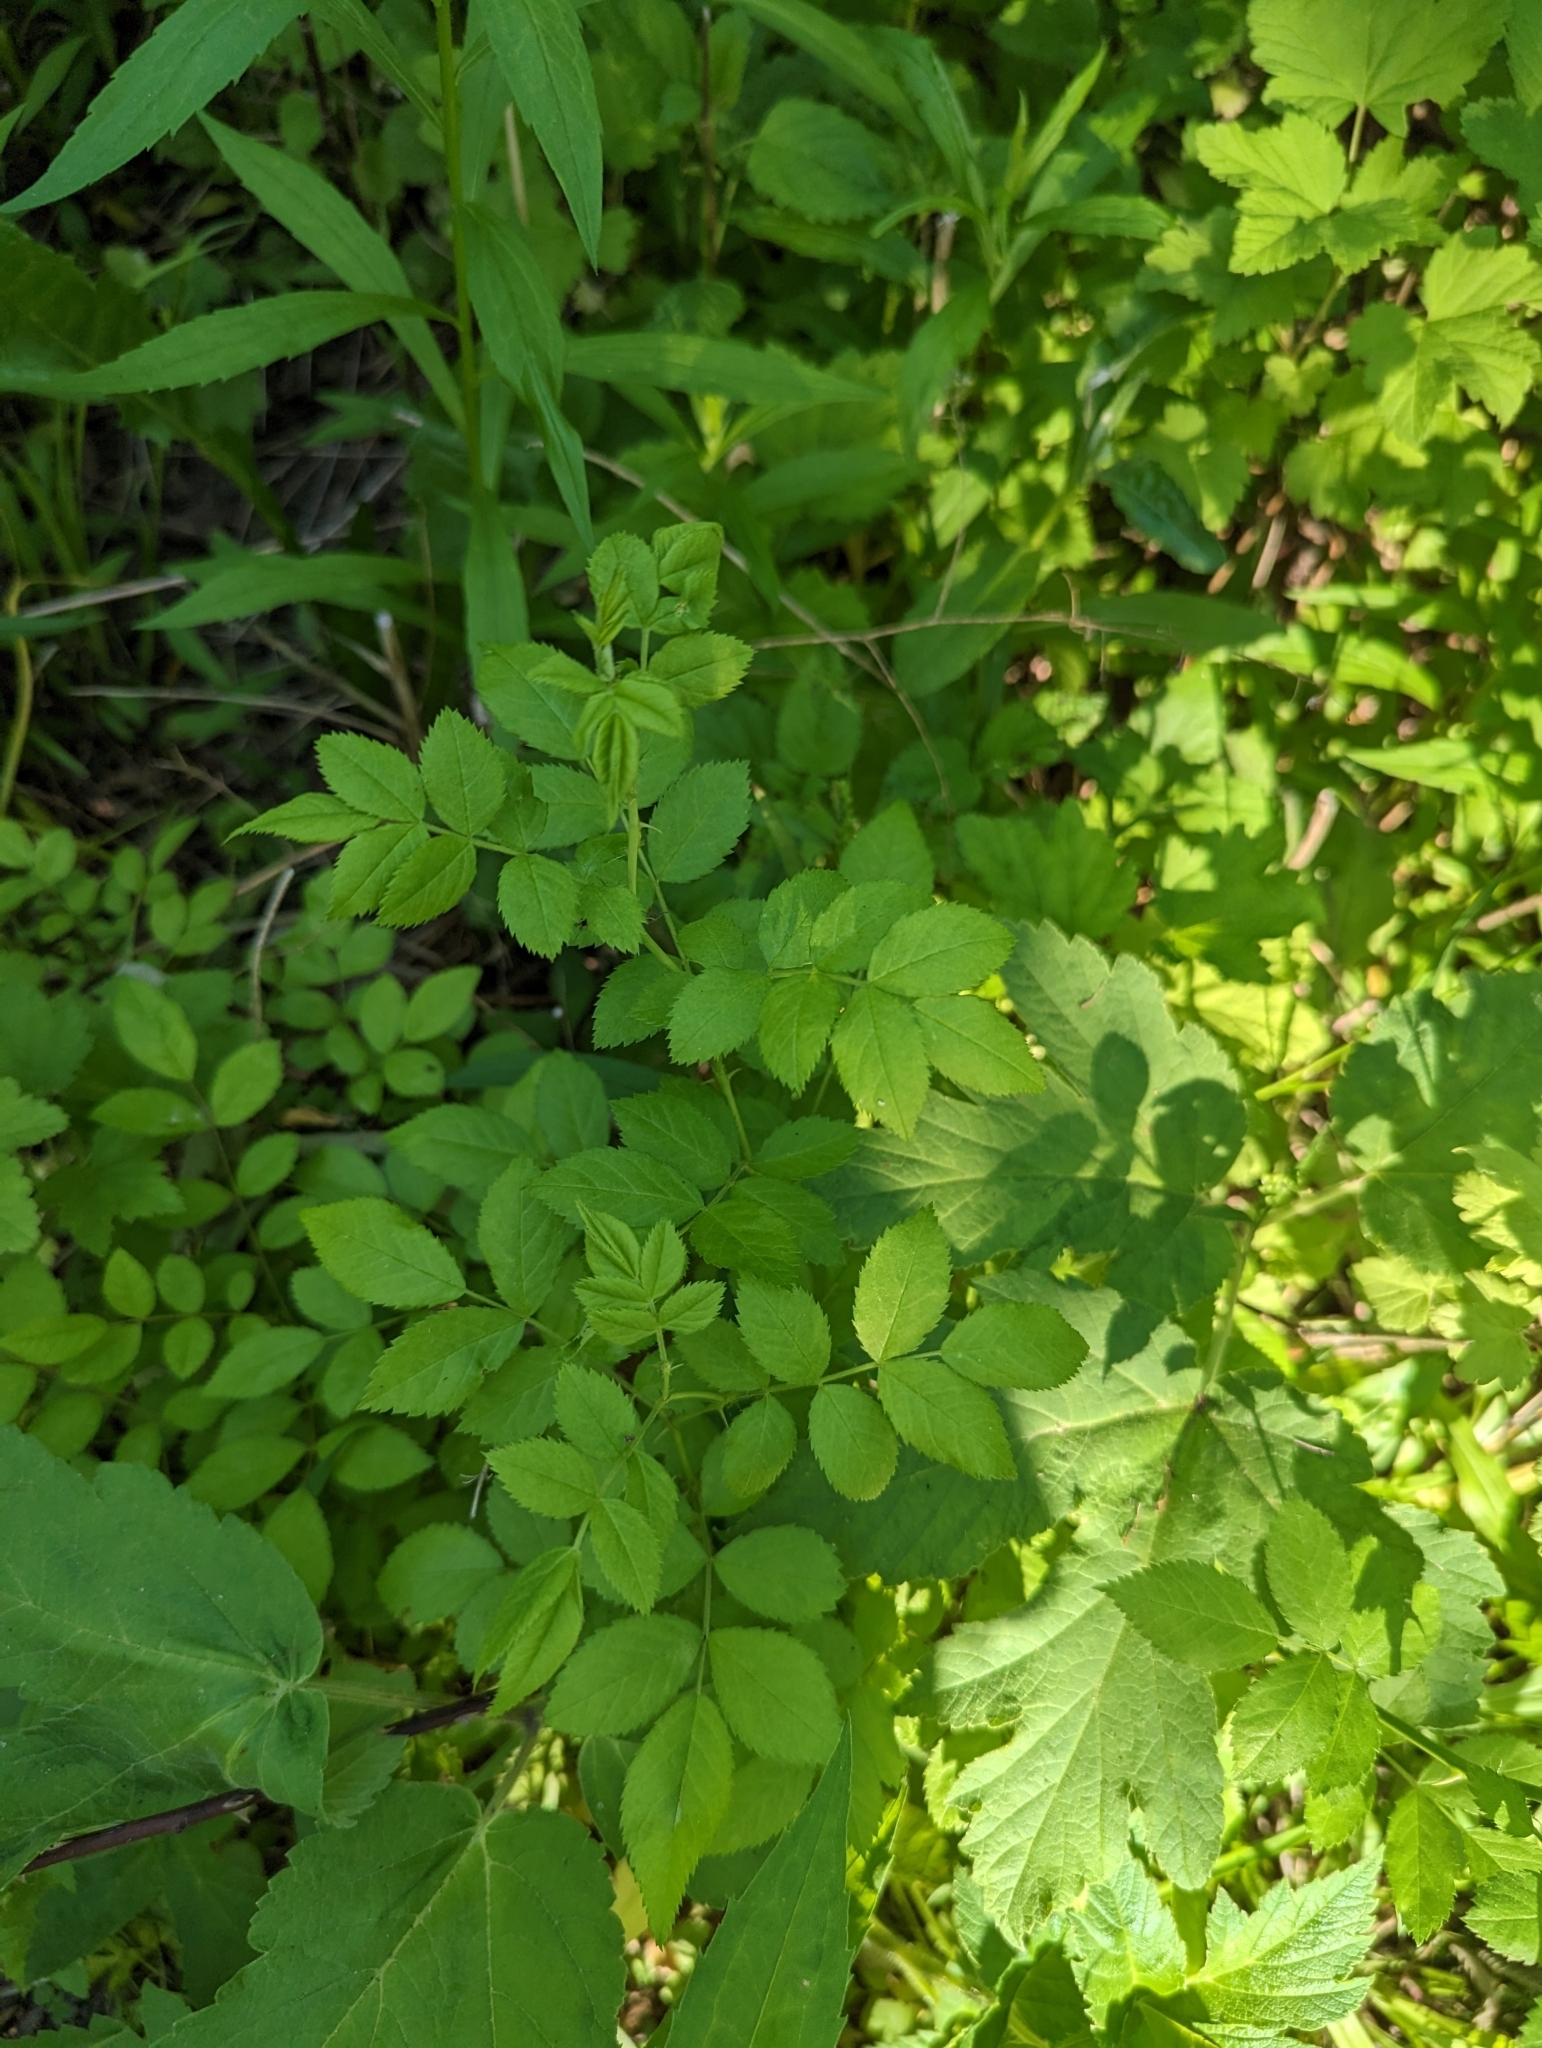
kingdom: Plantae
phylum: Tracheophyta
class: Magnoliopsida
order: Rosales
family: Rosaceae
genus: Rosa
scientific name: Rosa multiflora
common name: Multiflora rose
